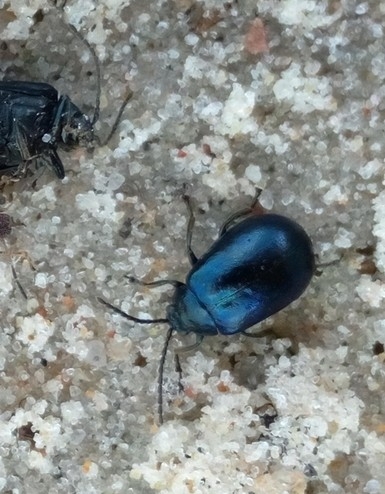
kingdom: Animalia
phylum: Arthropoda
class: Insecta
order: Coleoptera
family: Chrysomelidae
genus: Agelastica
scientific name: Agelastica alni
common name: Alder leaf beetle
